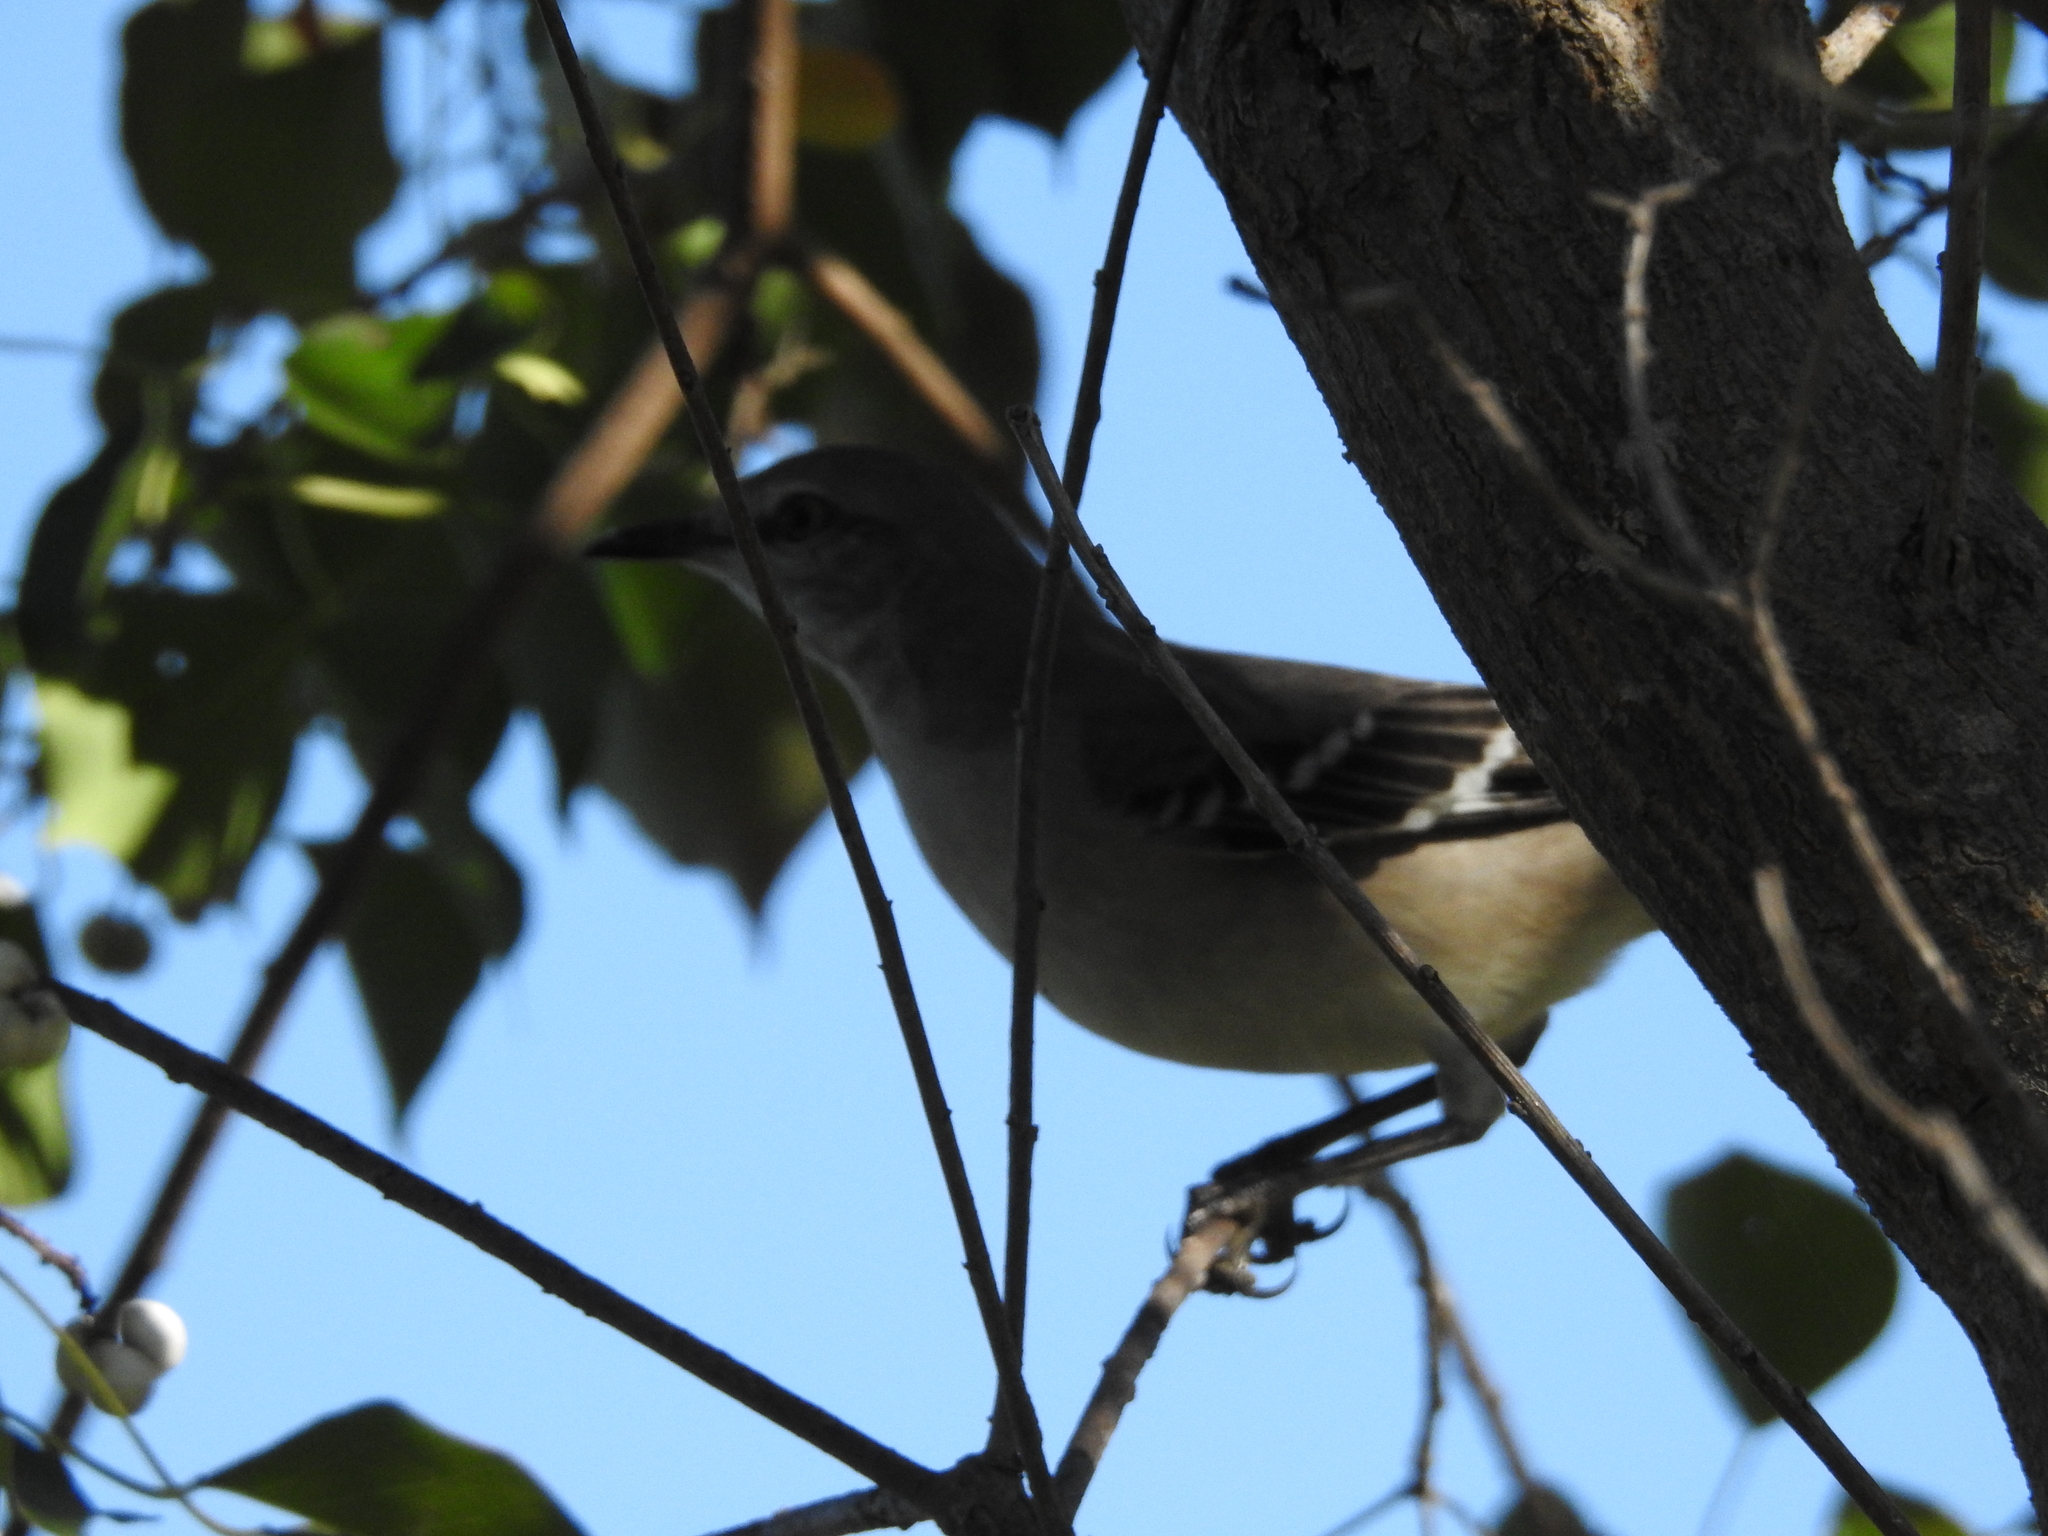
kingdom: Animalia
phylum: Chordata
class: Aves
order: Passeriformes
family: Mimidae
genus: Mimus
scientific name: Mimus polyglottos
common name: Northern mockingbird
